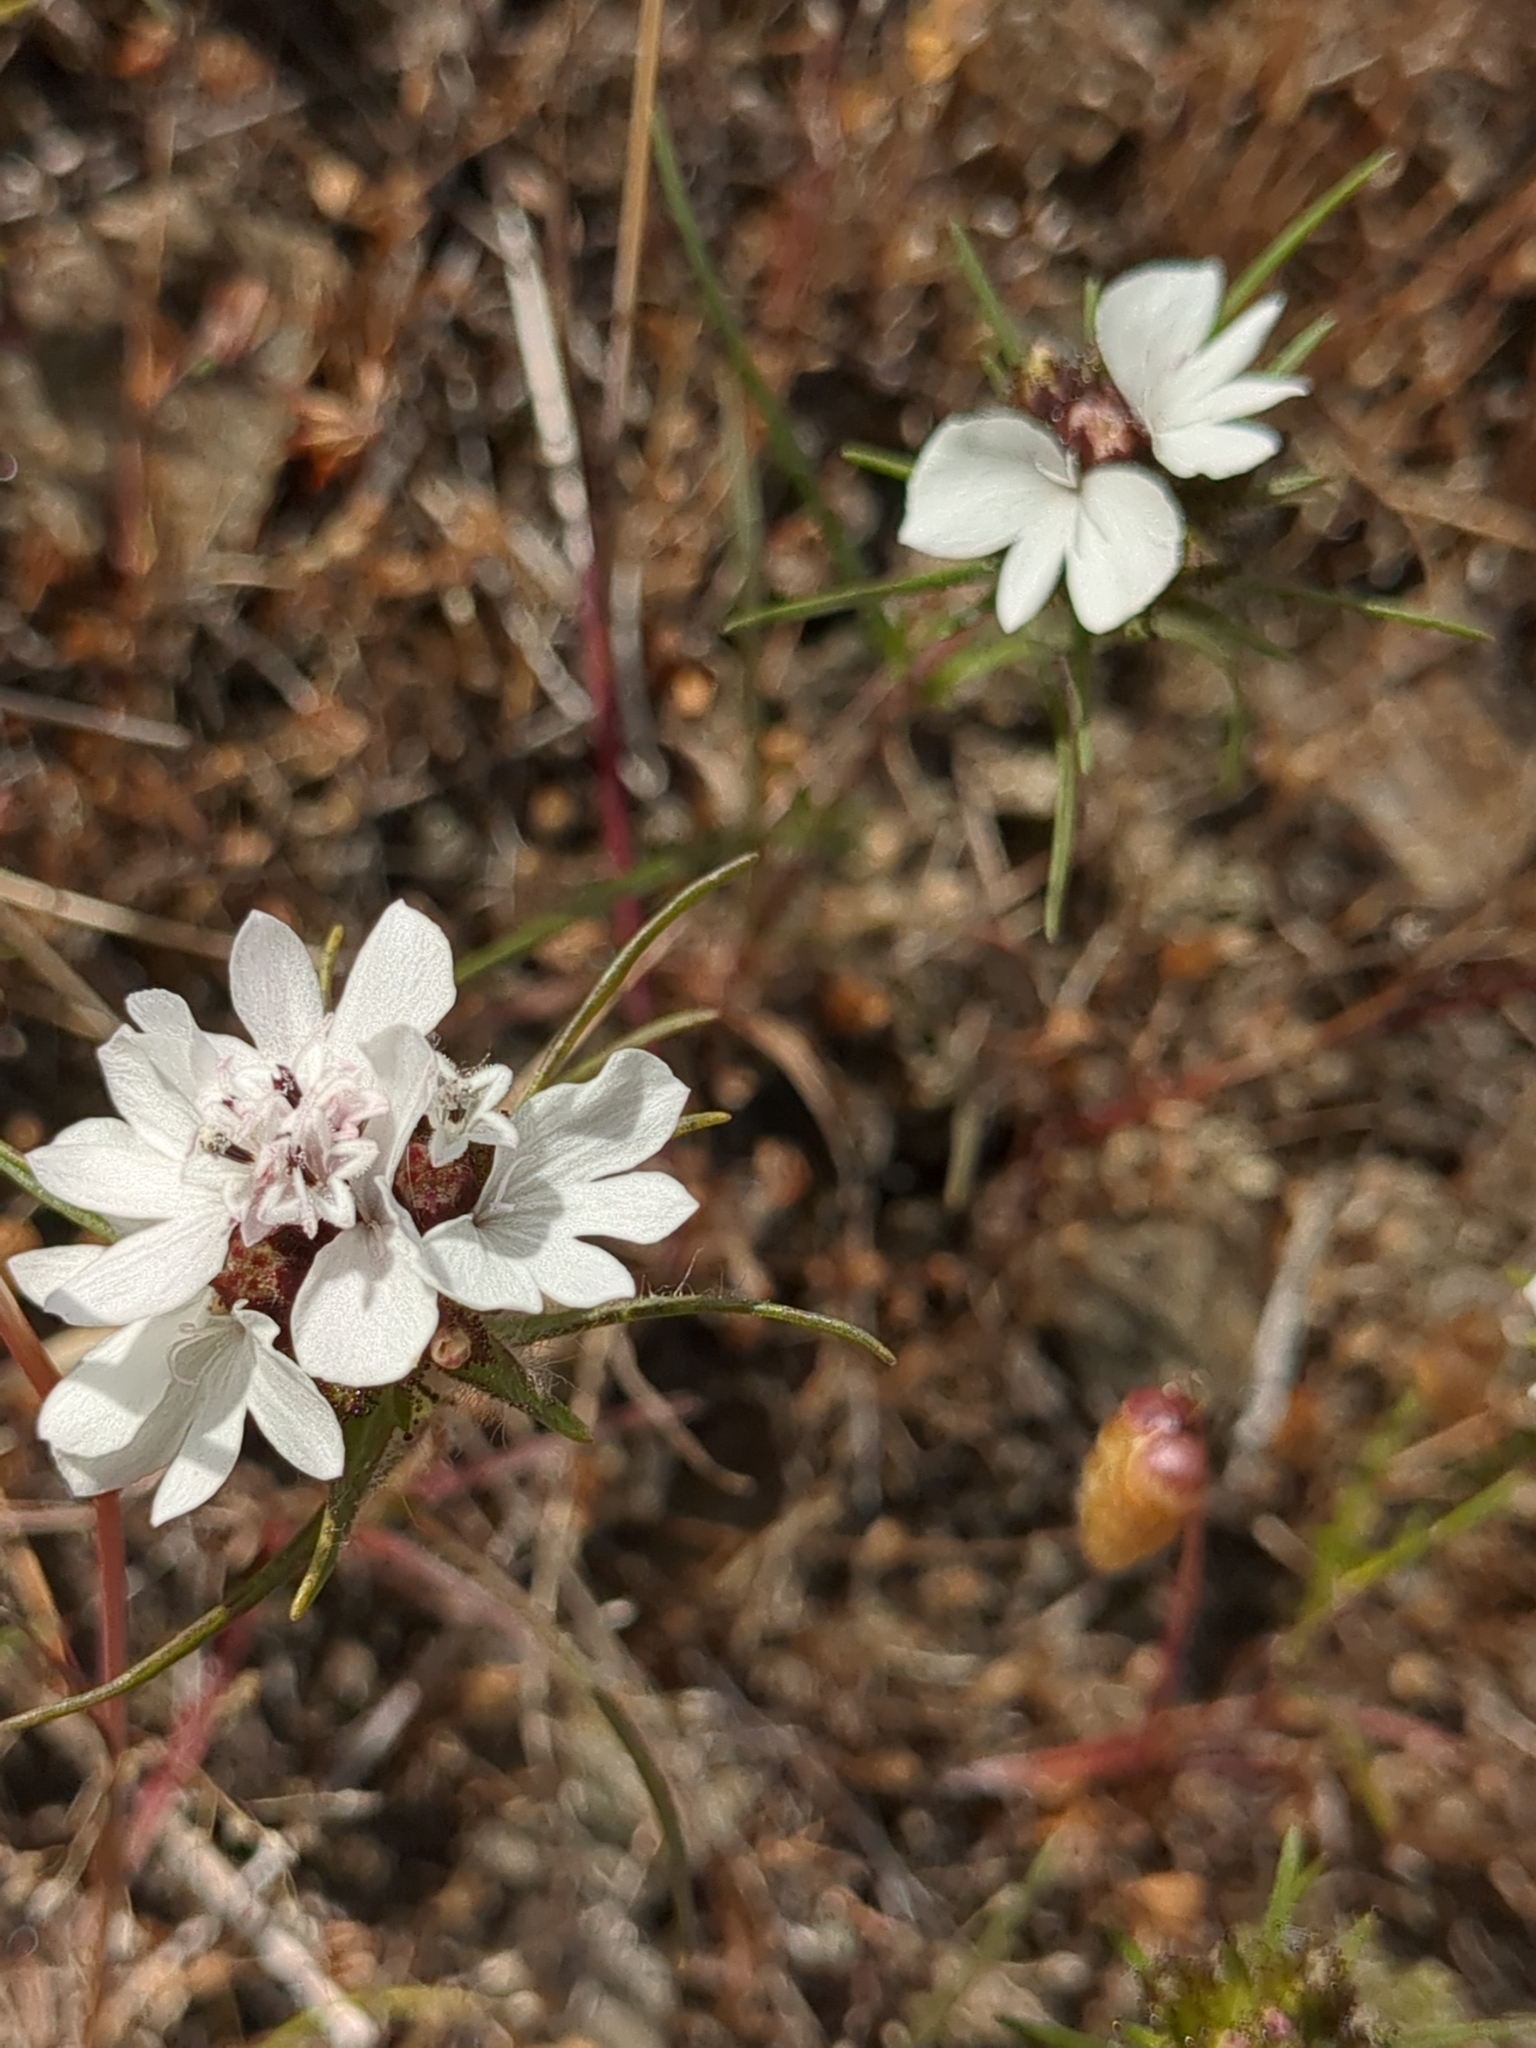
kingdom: Plantae
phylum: Tracheophyta
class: Magnoliopsida
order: Asterales
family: Asteraceae
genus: Calycadenia
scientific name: Calycadenia multiglandulosa
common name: Sticky calycadenia
